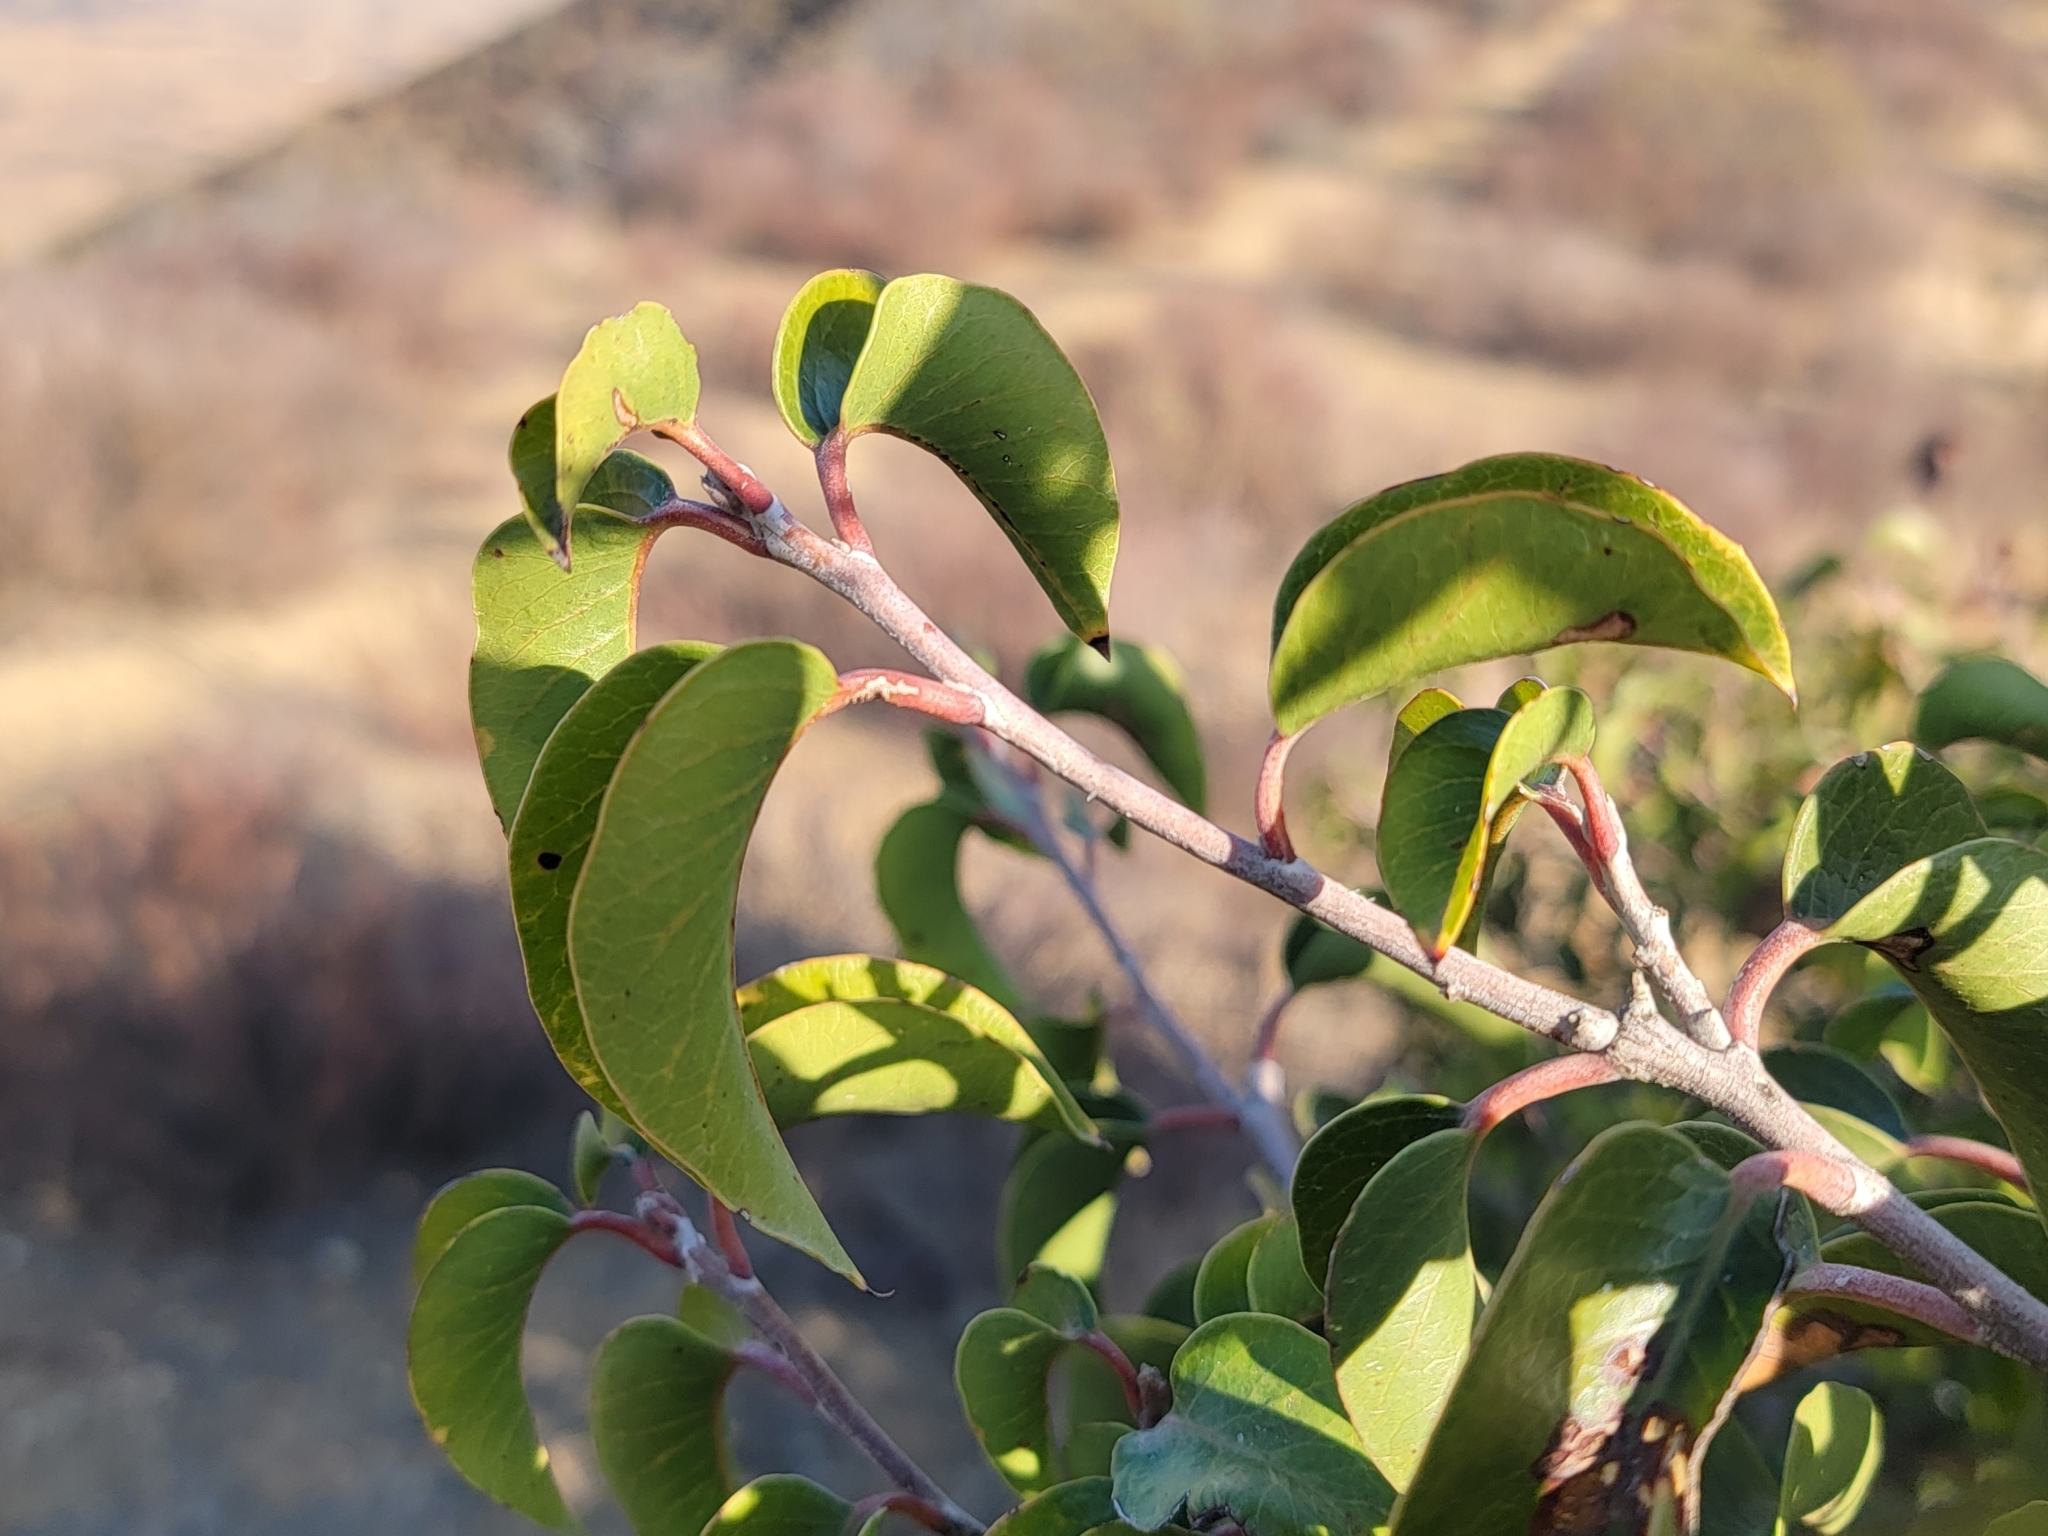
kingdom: Plantae
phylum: Tracheophyta
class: Magnoliopsida
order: Sapindales
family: Anacardiaceae
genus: Rhus
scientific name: Rhus ovata
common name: Sugar sumac
